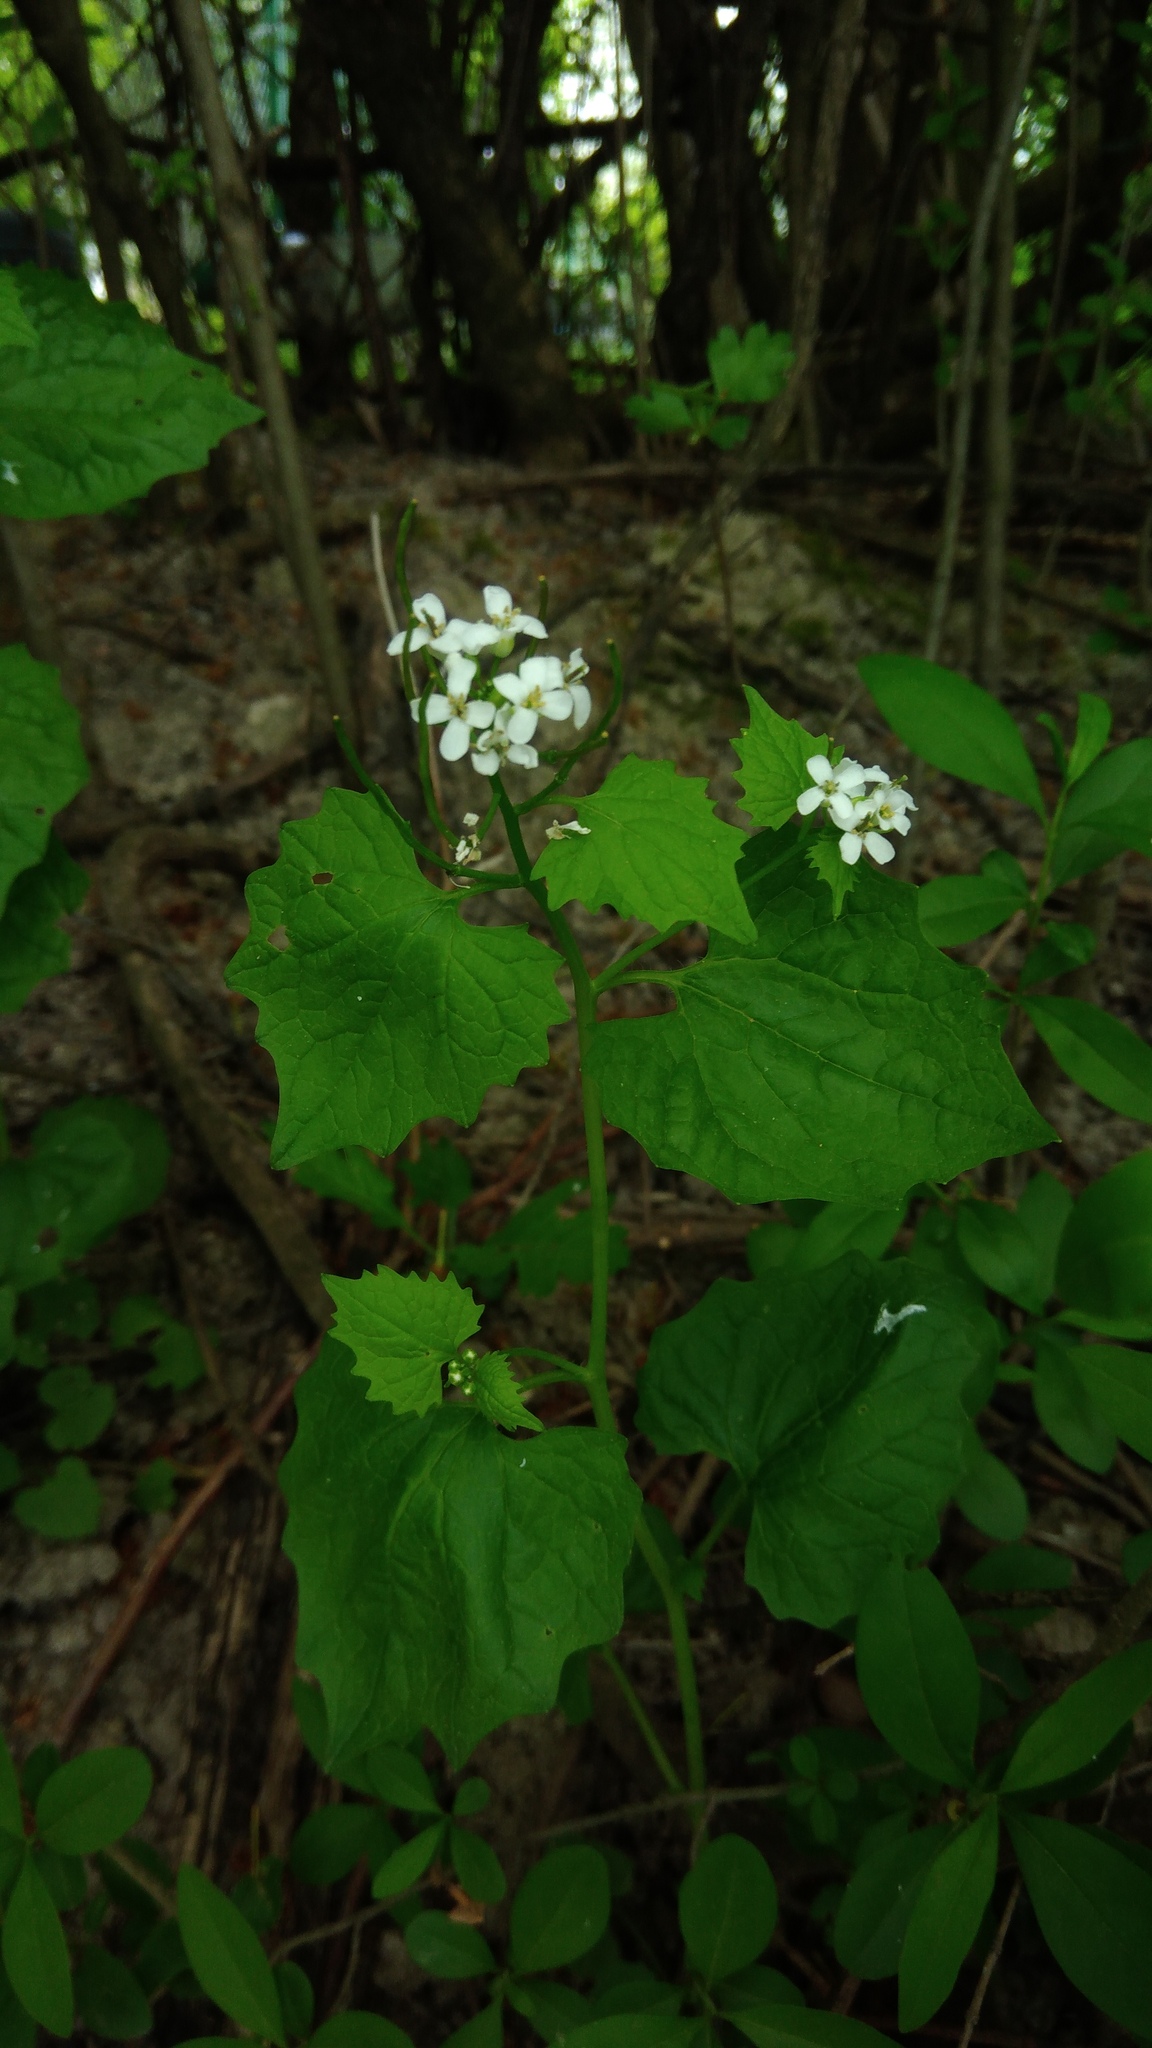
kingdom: Plantae
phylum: Tracheophyta
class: Magnoliopsida
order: Brassicales
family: Brassicaceae
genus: Alliaria
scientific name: Alliaria petiolata
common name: Garlic mustard
